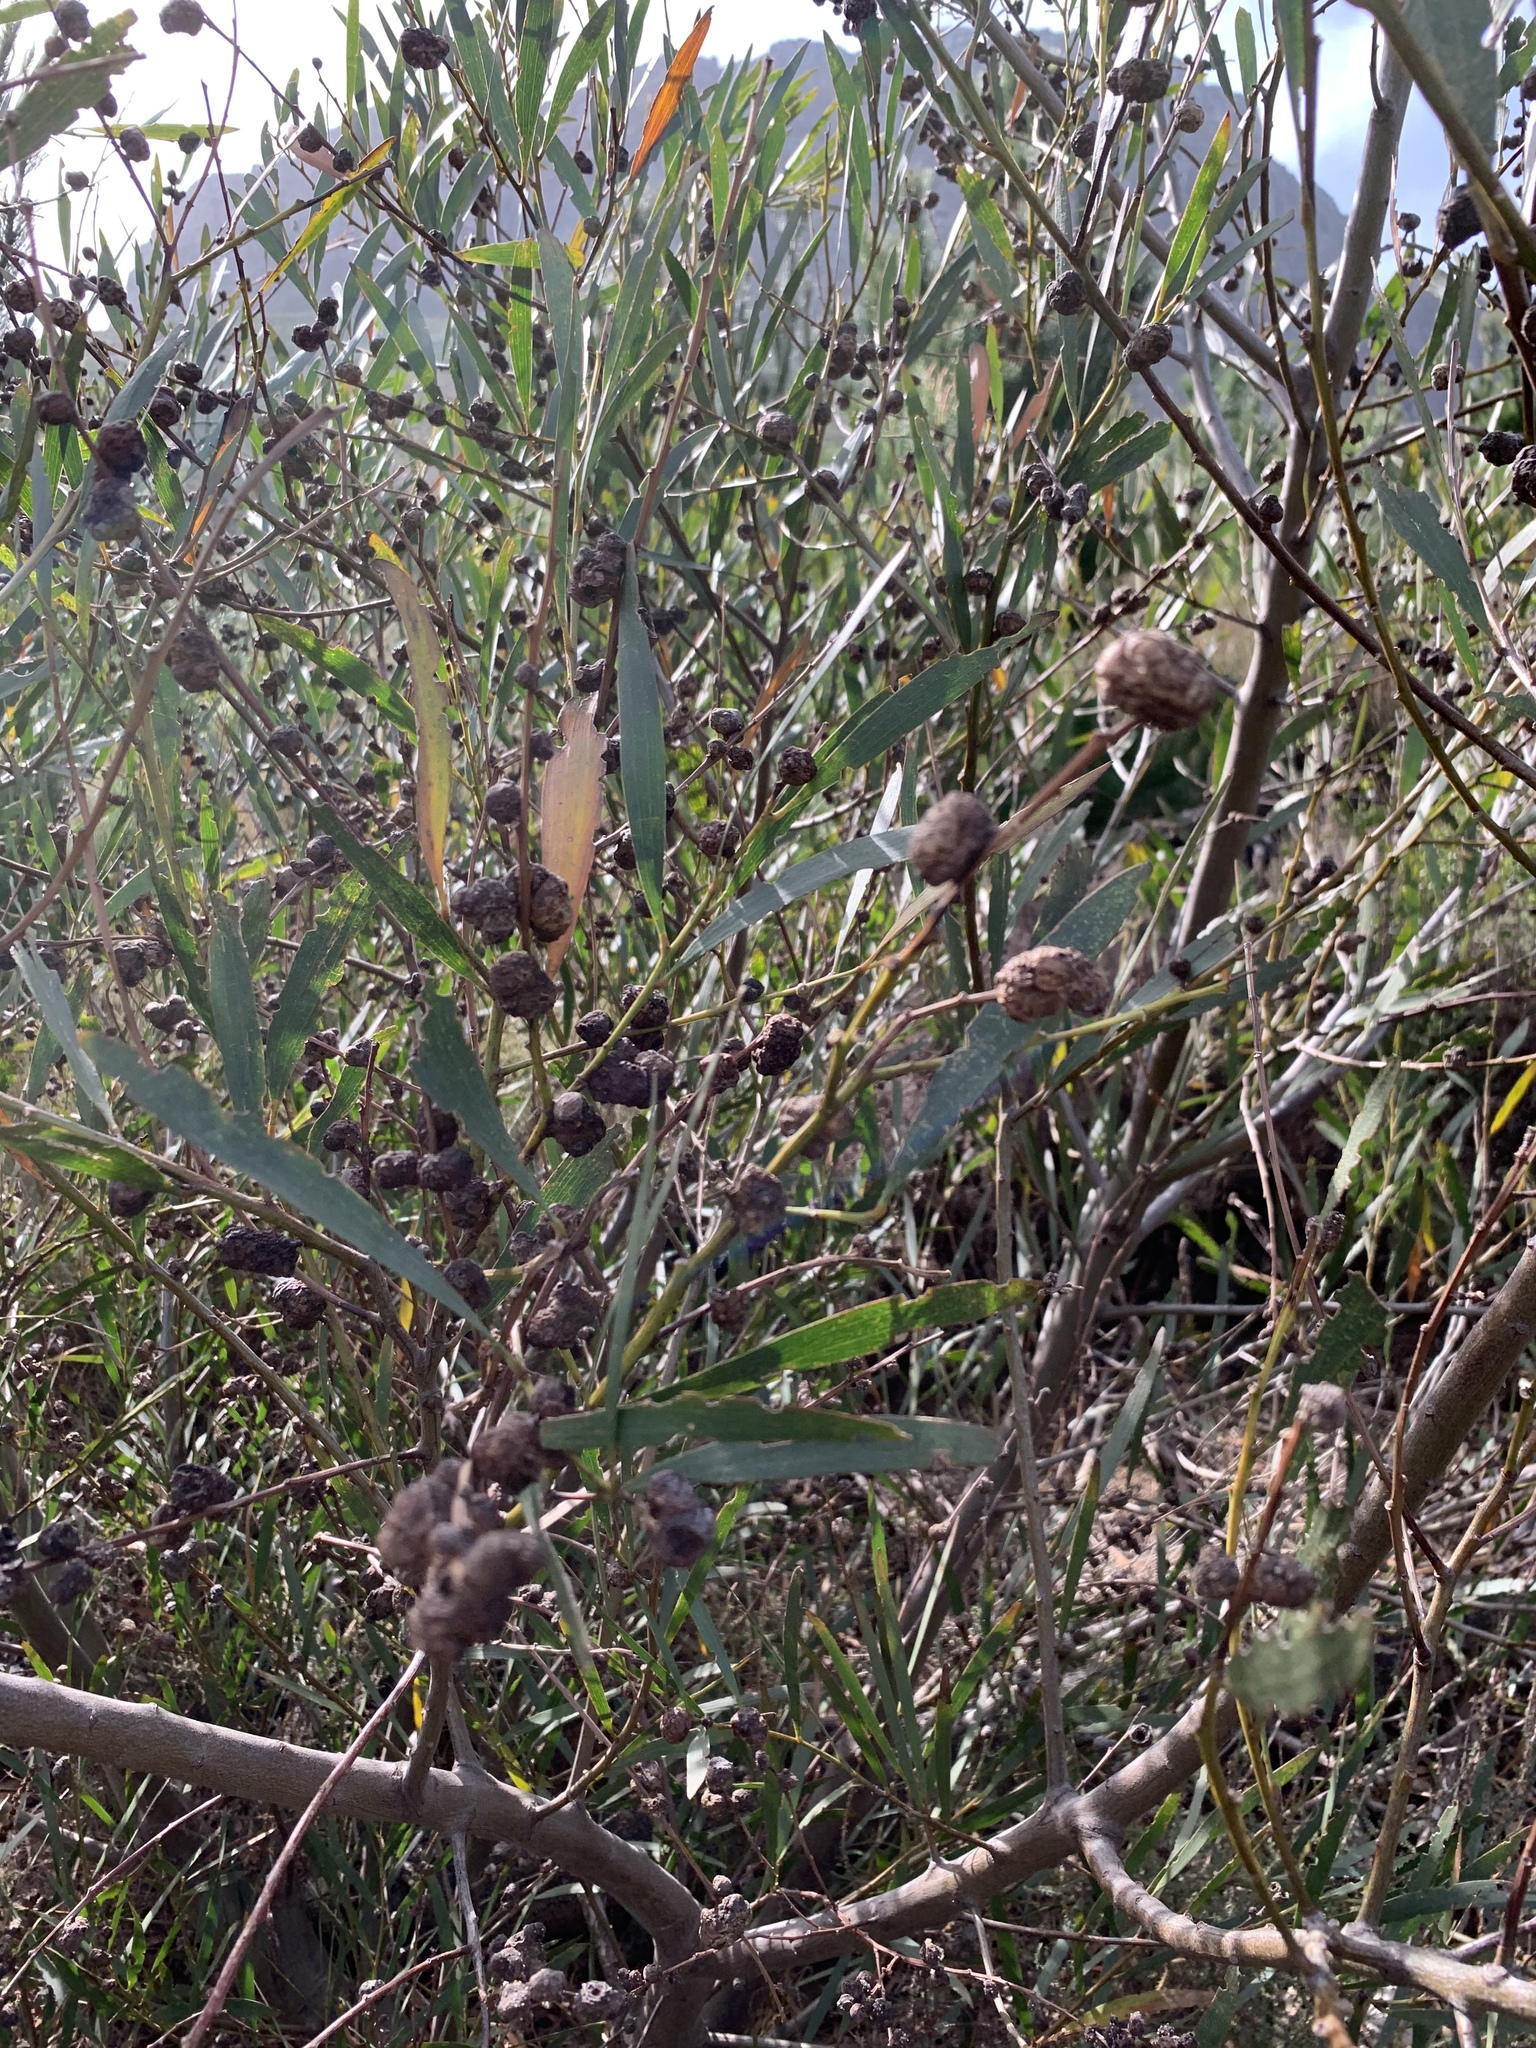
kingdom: Plantae
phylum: Tracheophyta
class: Magnoliopsida
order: Fabales
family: Fabaceae
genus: Acacia
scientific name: Acacia longifolia
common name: Sydney golden wattle
